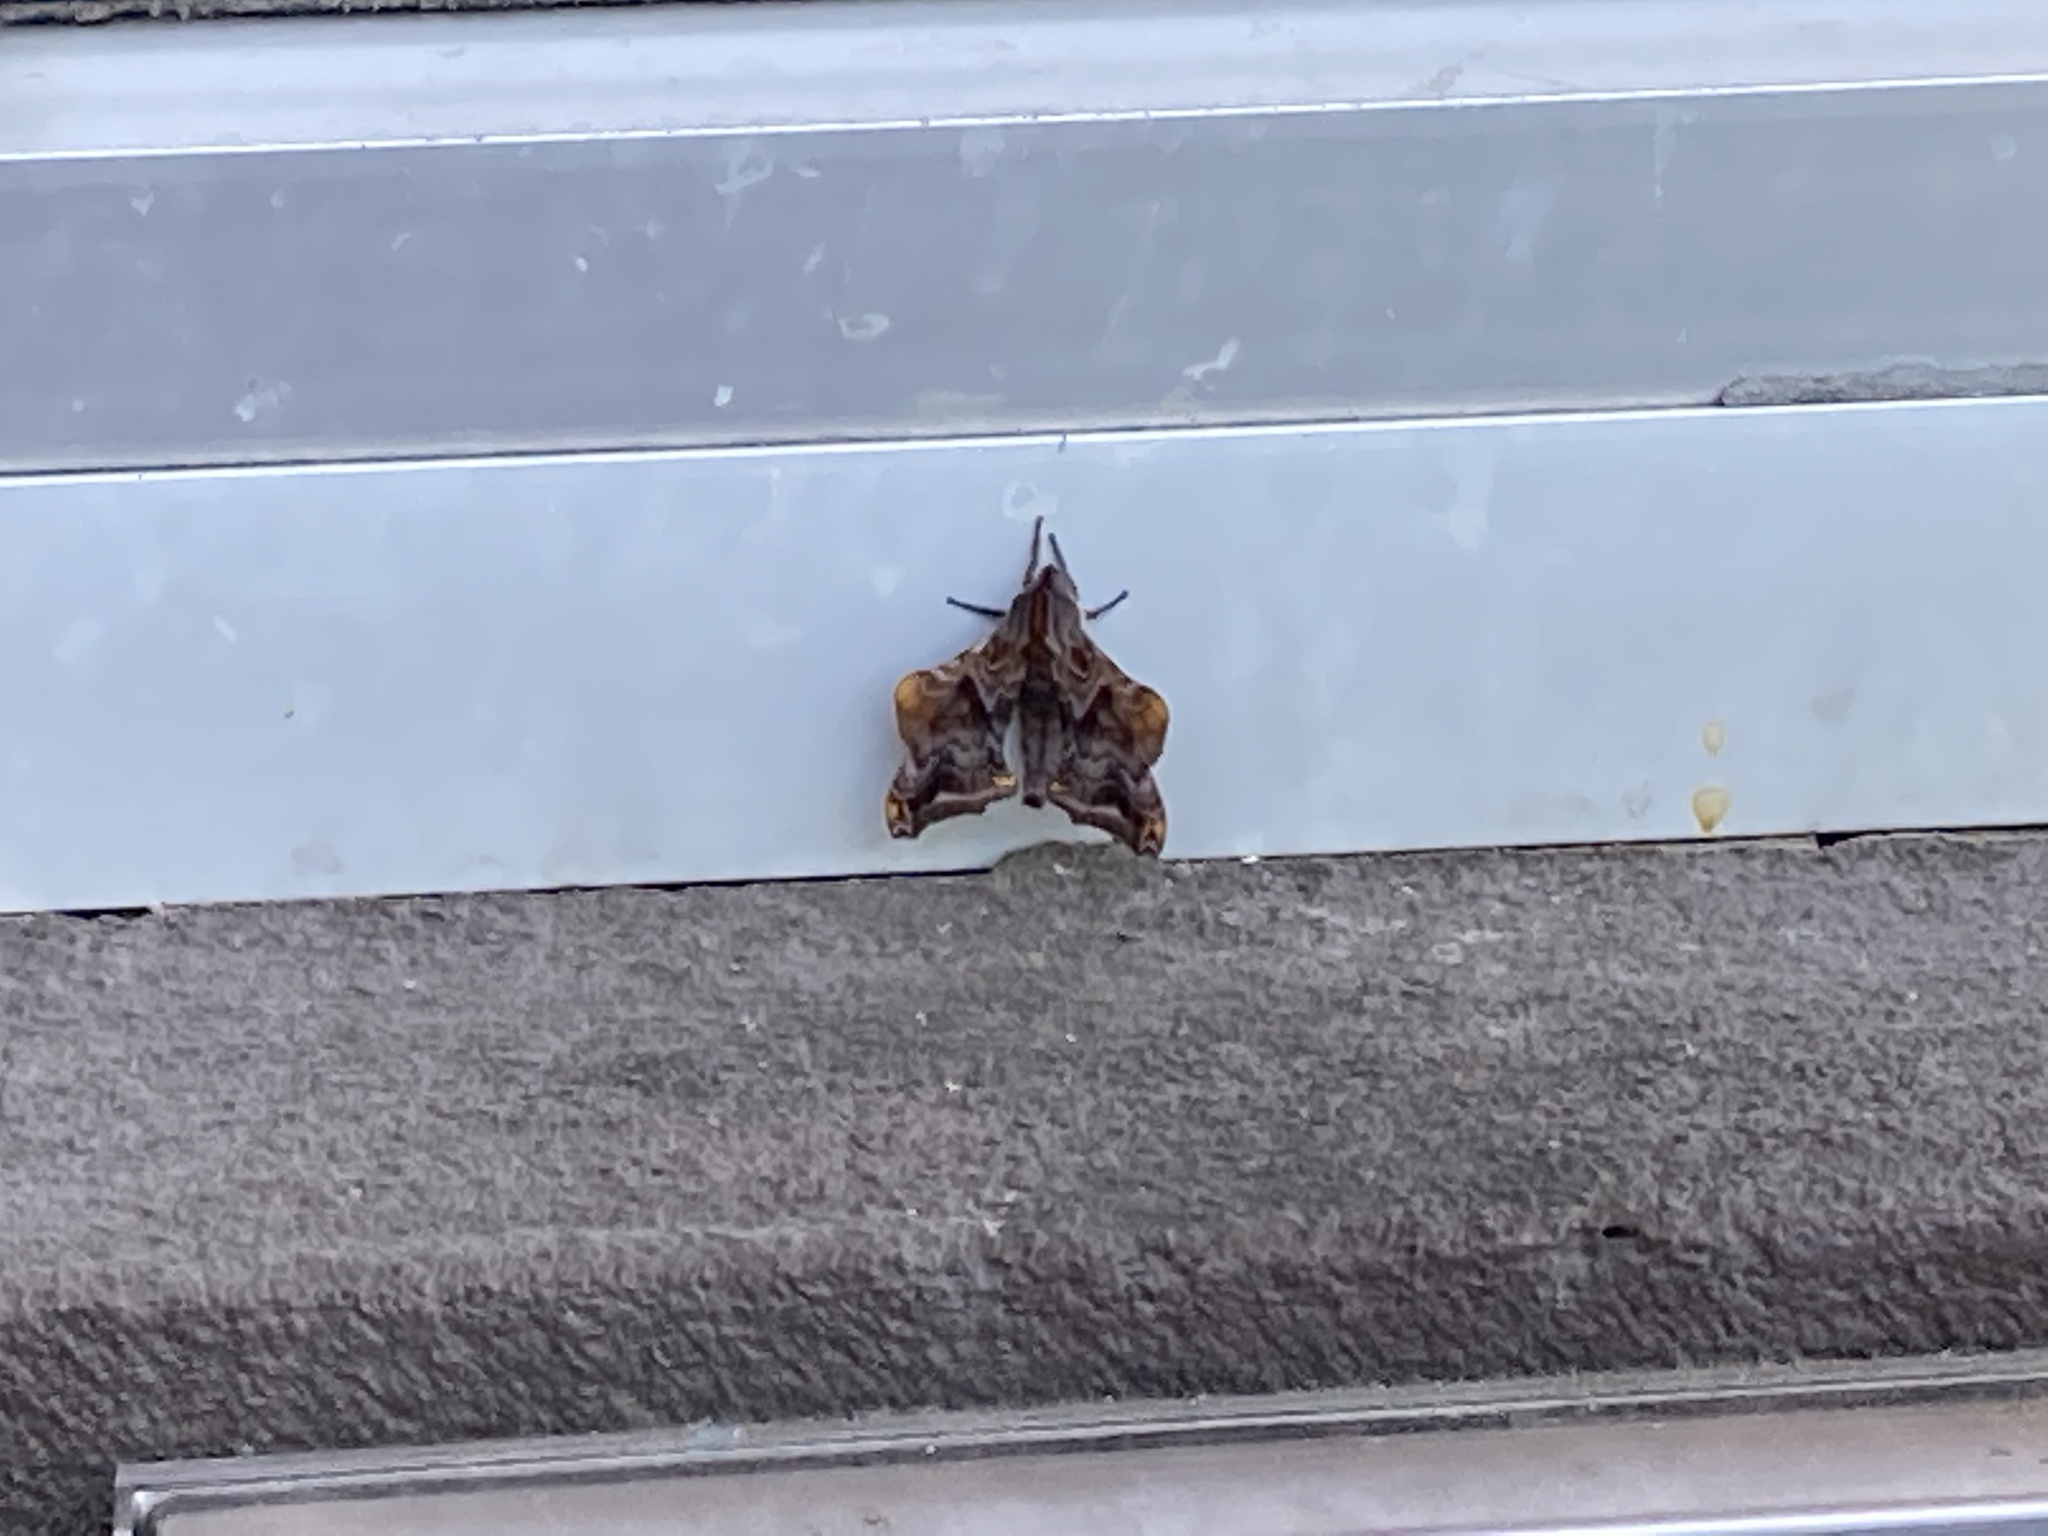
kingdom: Animalia
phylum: Arthropoda
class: Insecta
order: Lepidoptera
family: Sphingidae
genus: Paonias
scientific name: Paonias myops
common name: Small-eyed sphinx
